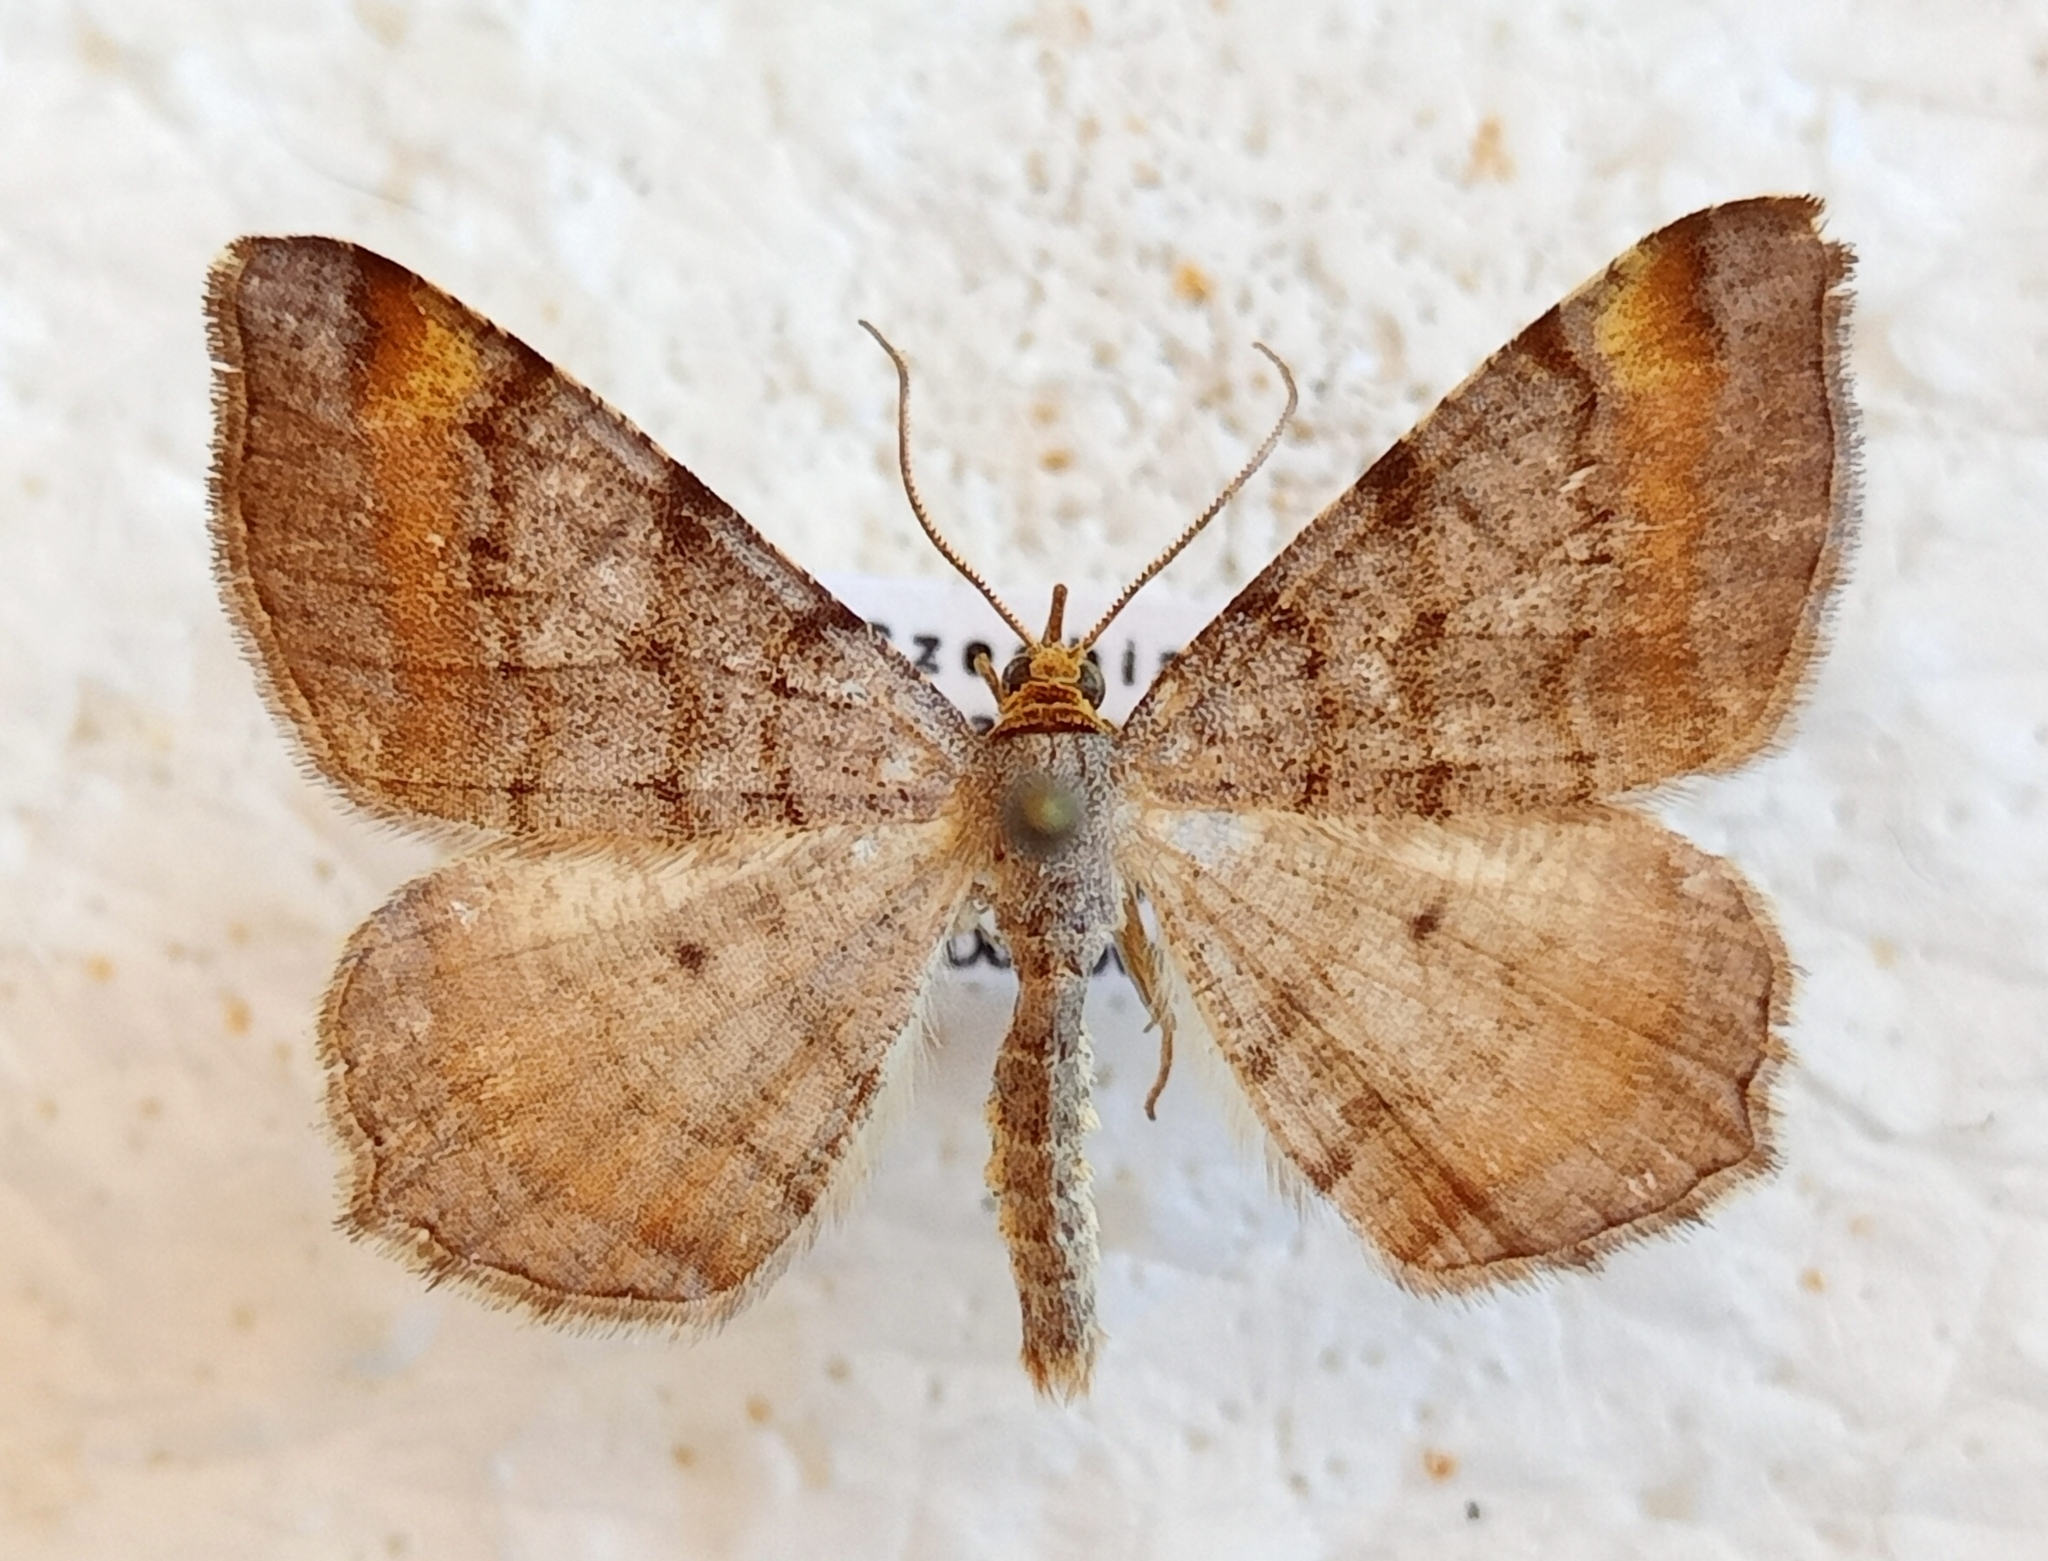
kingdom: Animalia
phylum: Arthropoda
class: Insecta
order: Lepidoptera
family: Geometridae
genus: Macaria
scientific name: Macaria liturata
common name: Tawny-barred angle
